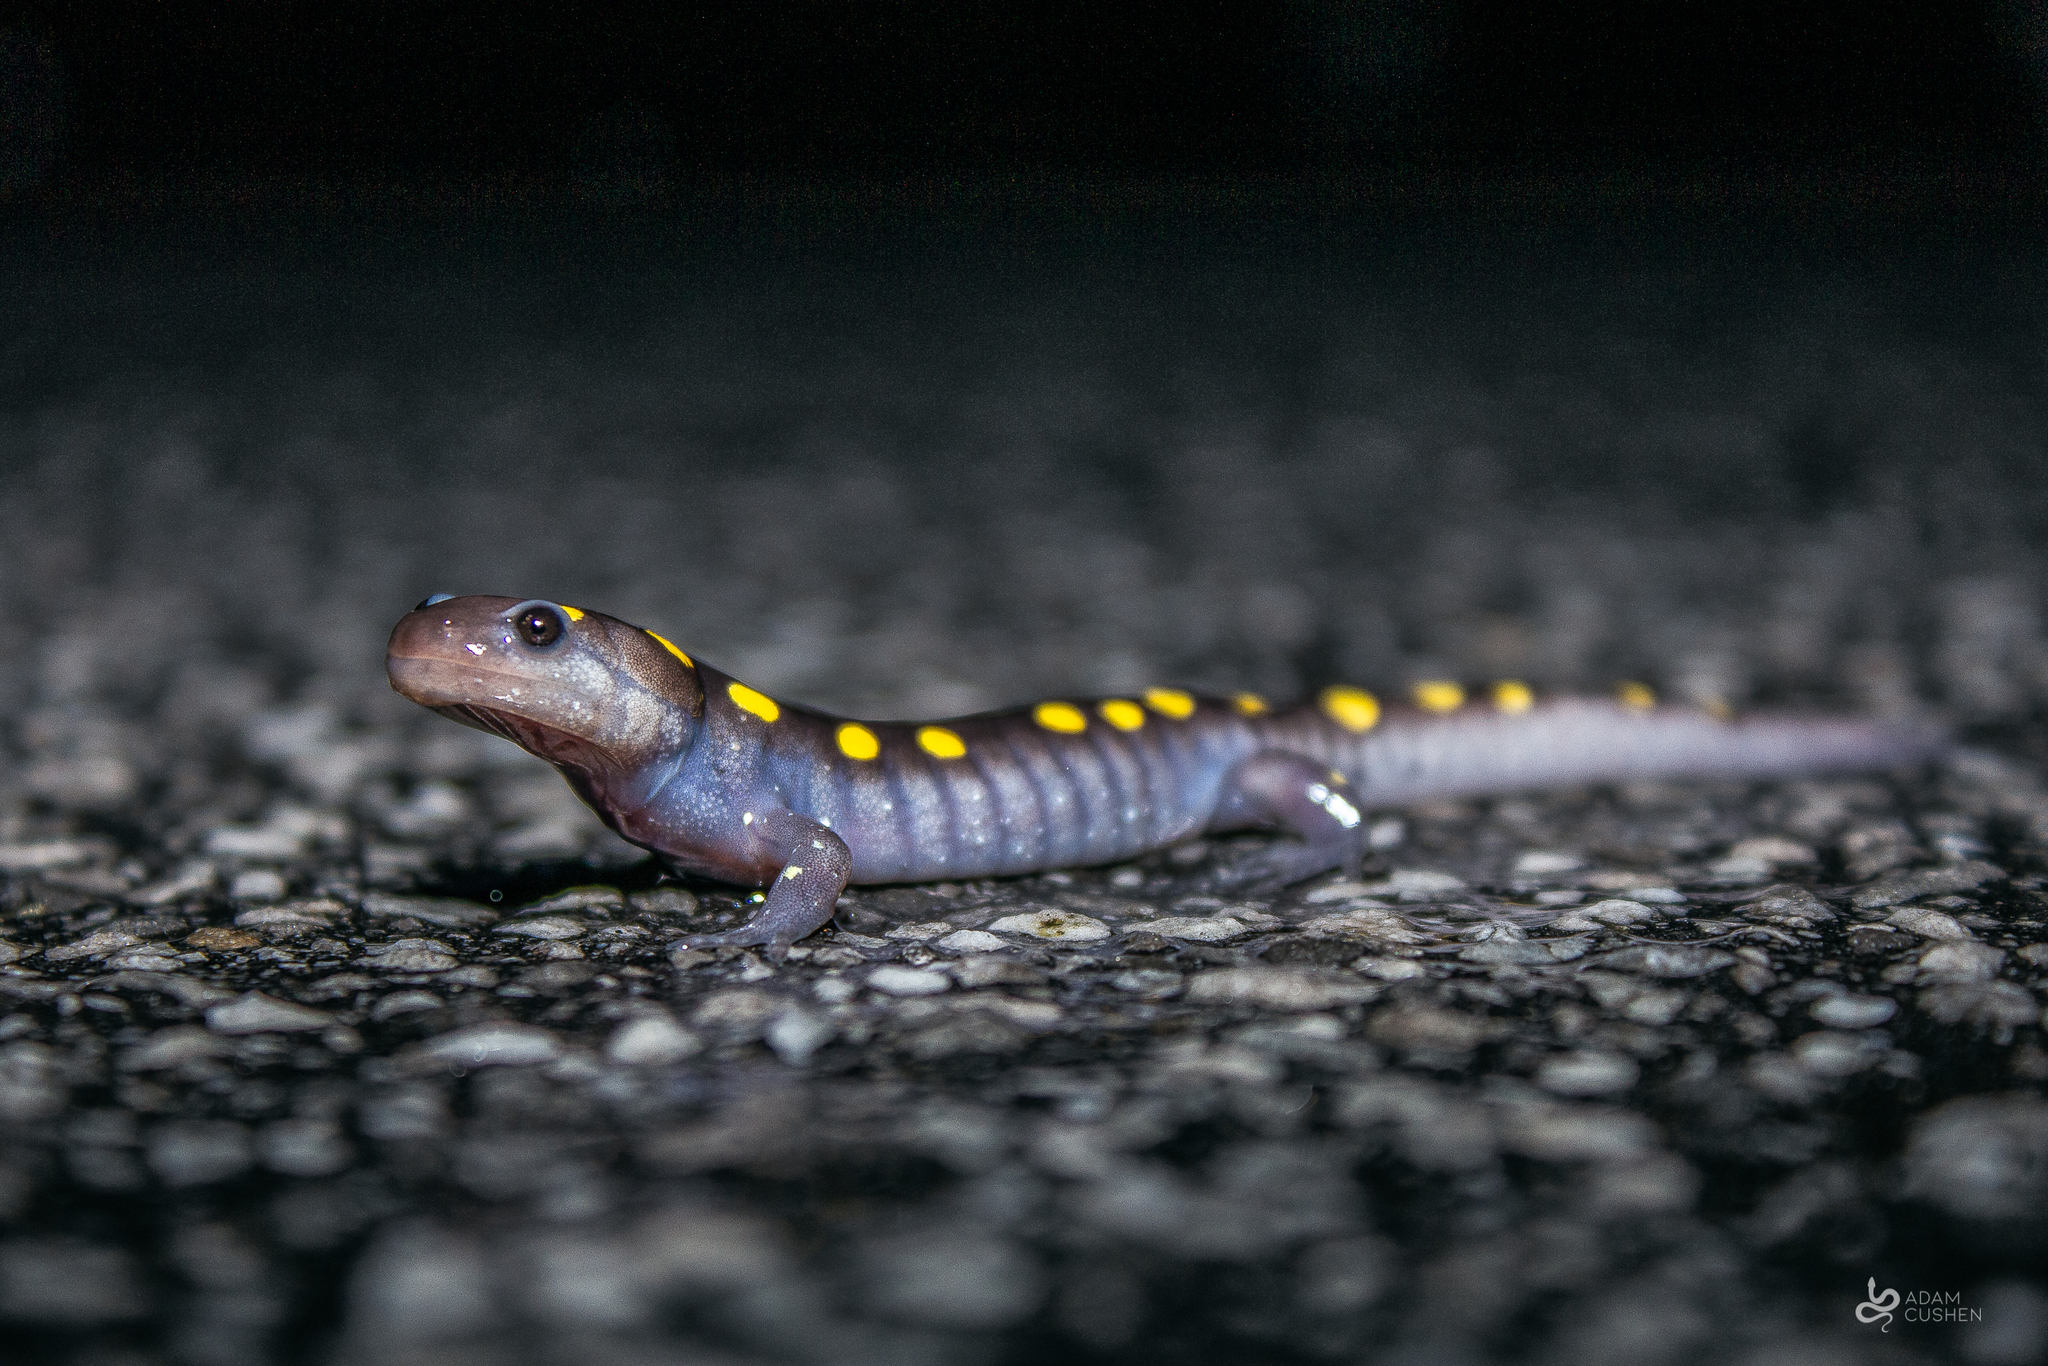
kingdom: Animalia
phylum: Chordata
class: Amphibia
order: Caudata
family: Ambystomatidae
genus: Ambystoma
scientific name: Ambystoma maculatum
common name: Spotted salamander
